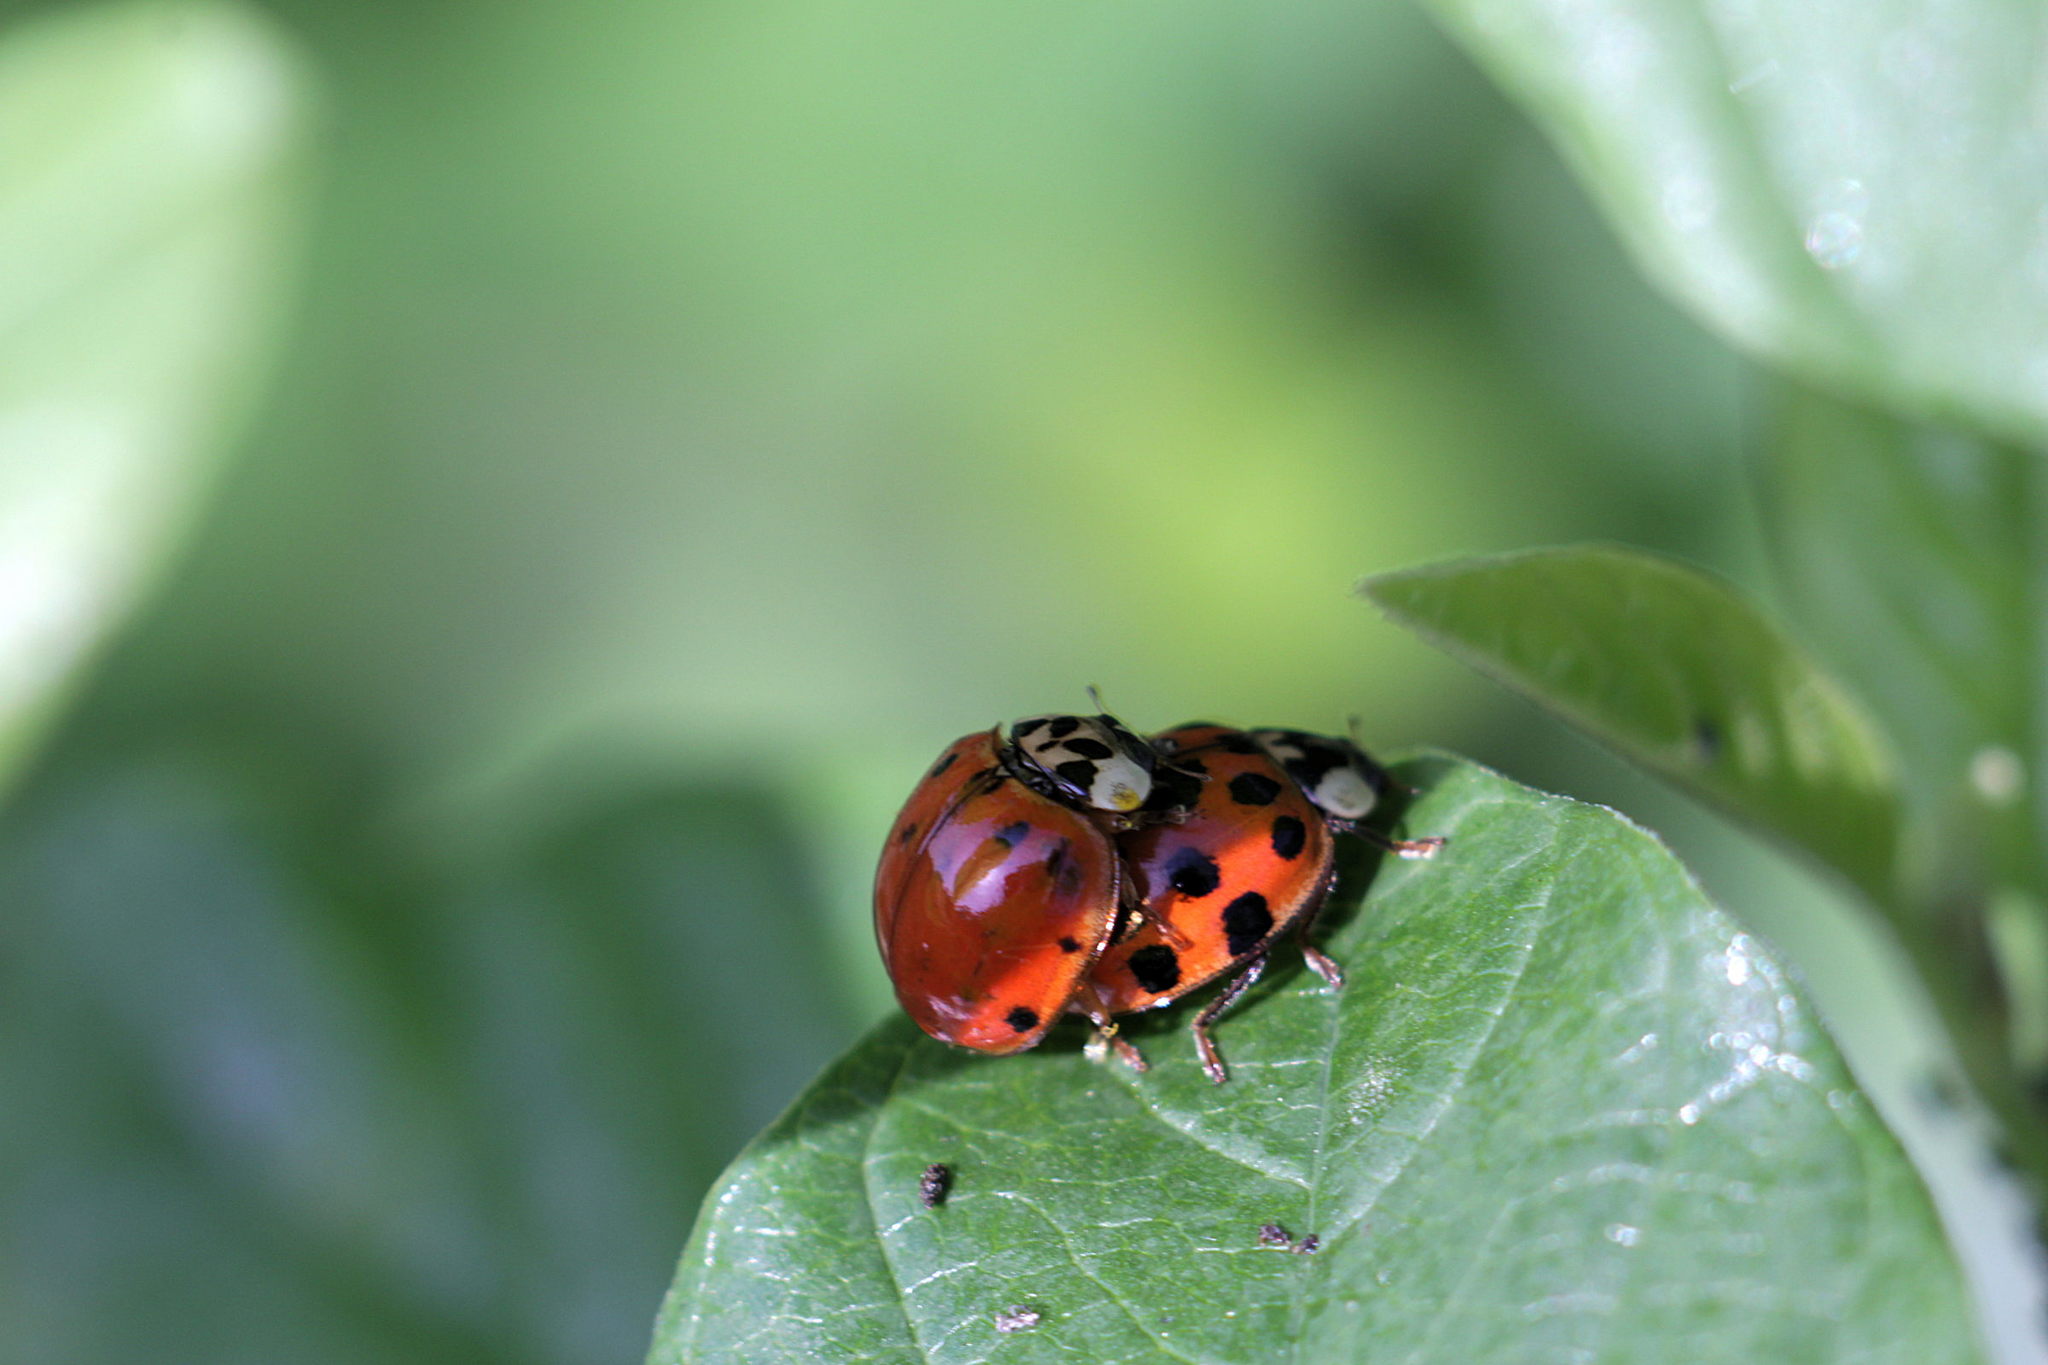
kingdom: Animalia
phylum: Arthropoda
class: Insecta
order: Coleoptera
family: Coccinellidae
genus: Harmonia
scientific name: Harmonia axyridis
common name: Harlequin ladybird
